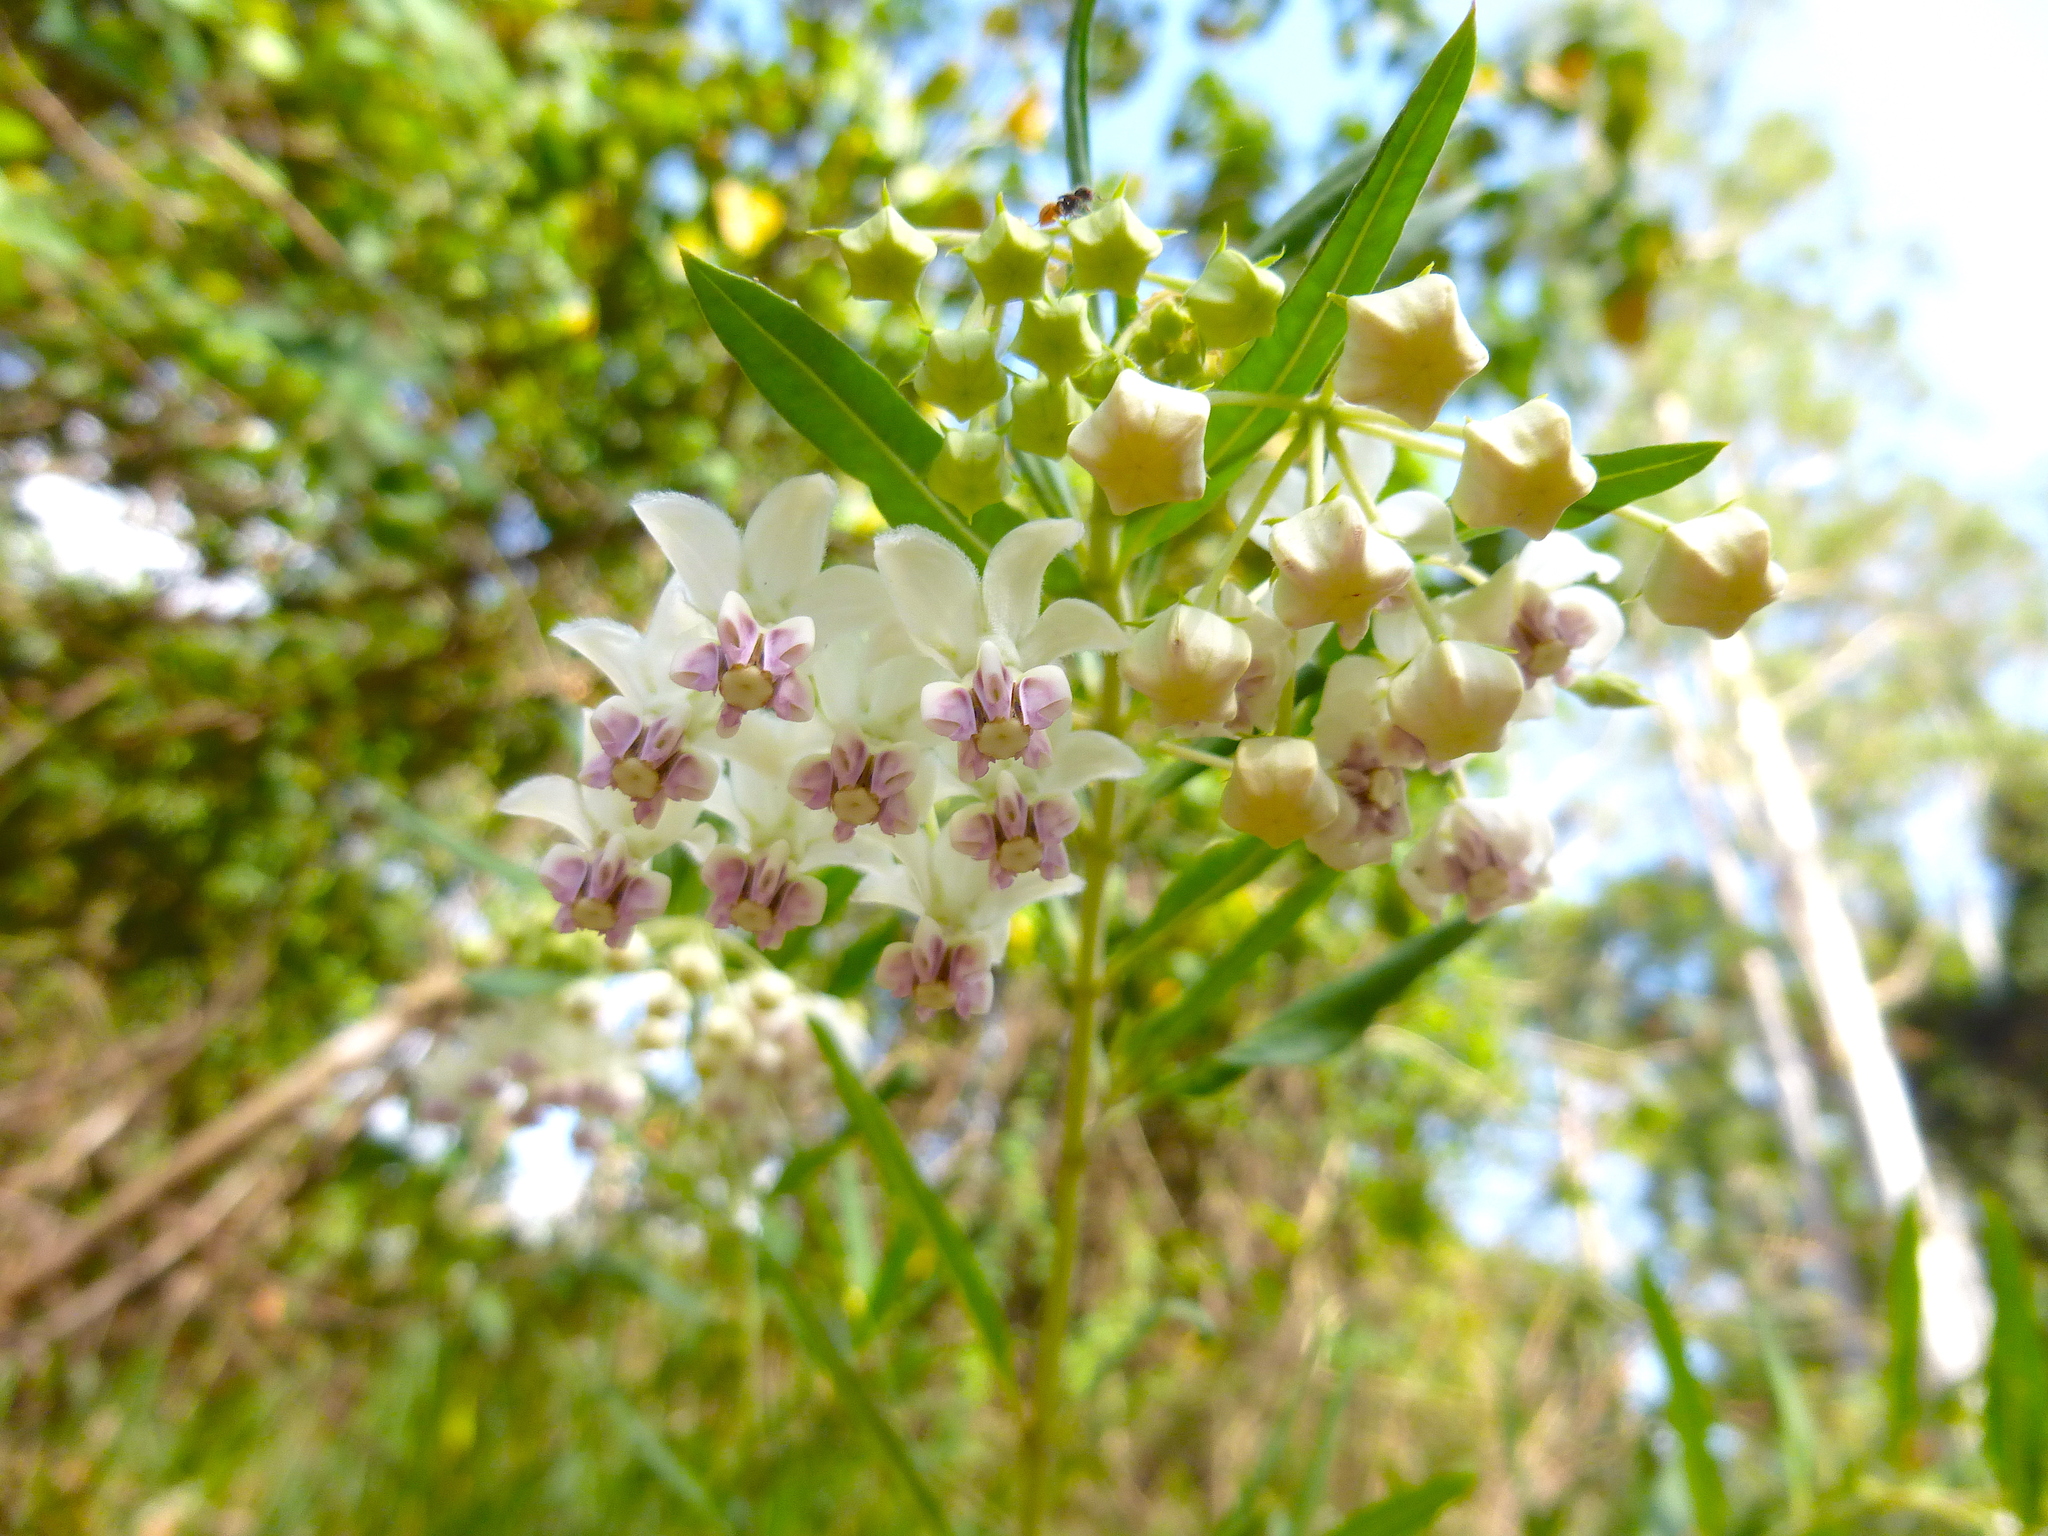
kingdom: Plantae
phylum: Tracheophyta
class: Magnoliopsida
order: Gentianales
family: Apocynaceae
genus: Gomphocarpus
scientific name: Gomphocarpus physocarpus
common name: Balloon cotton bush
